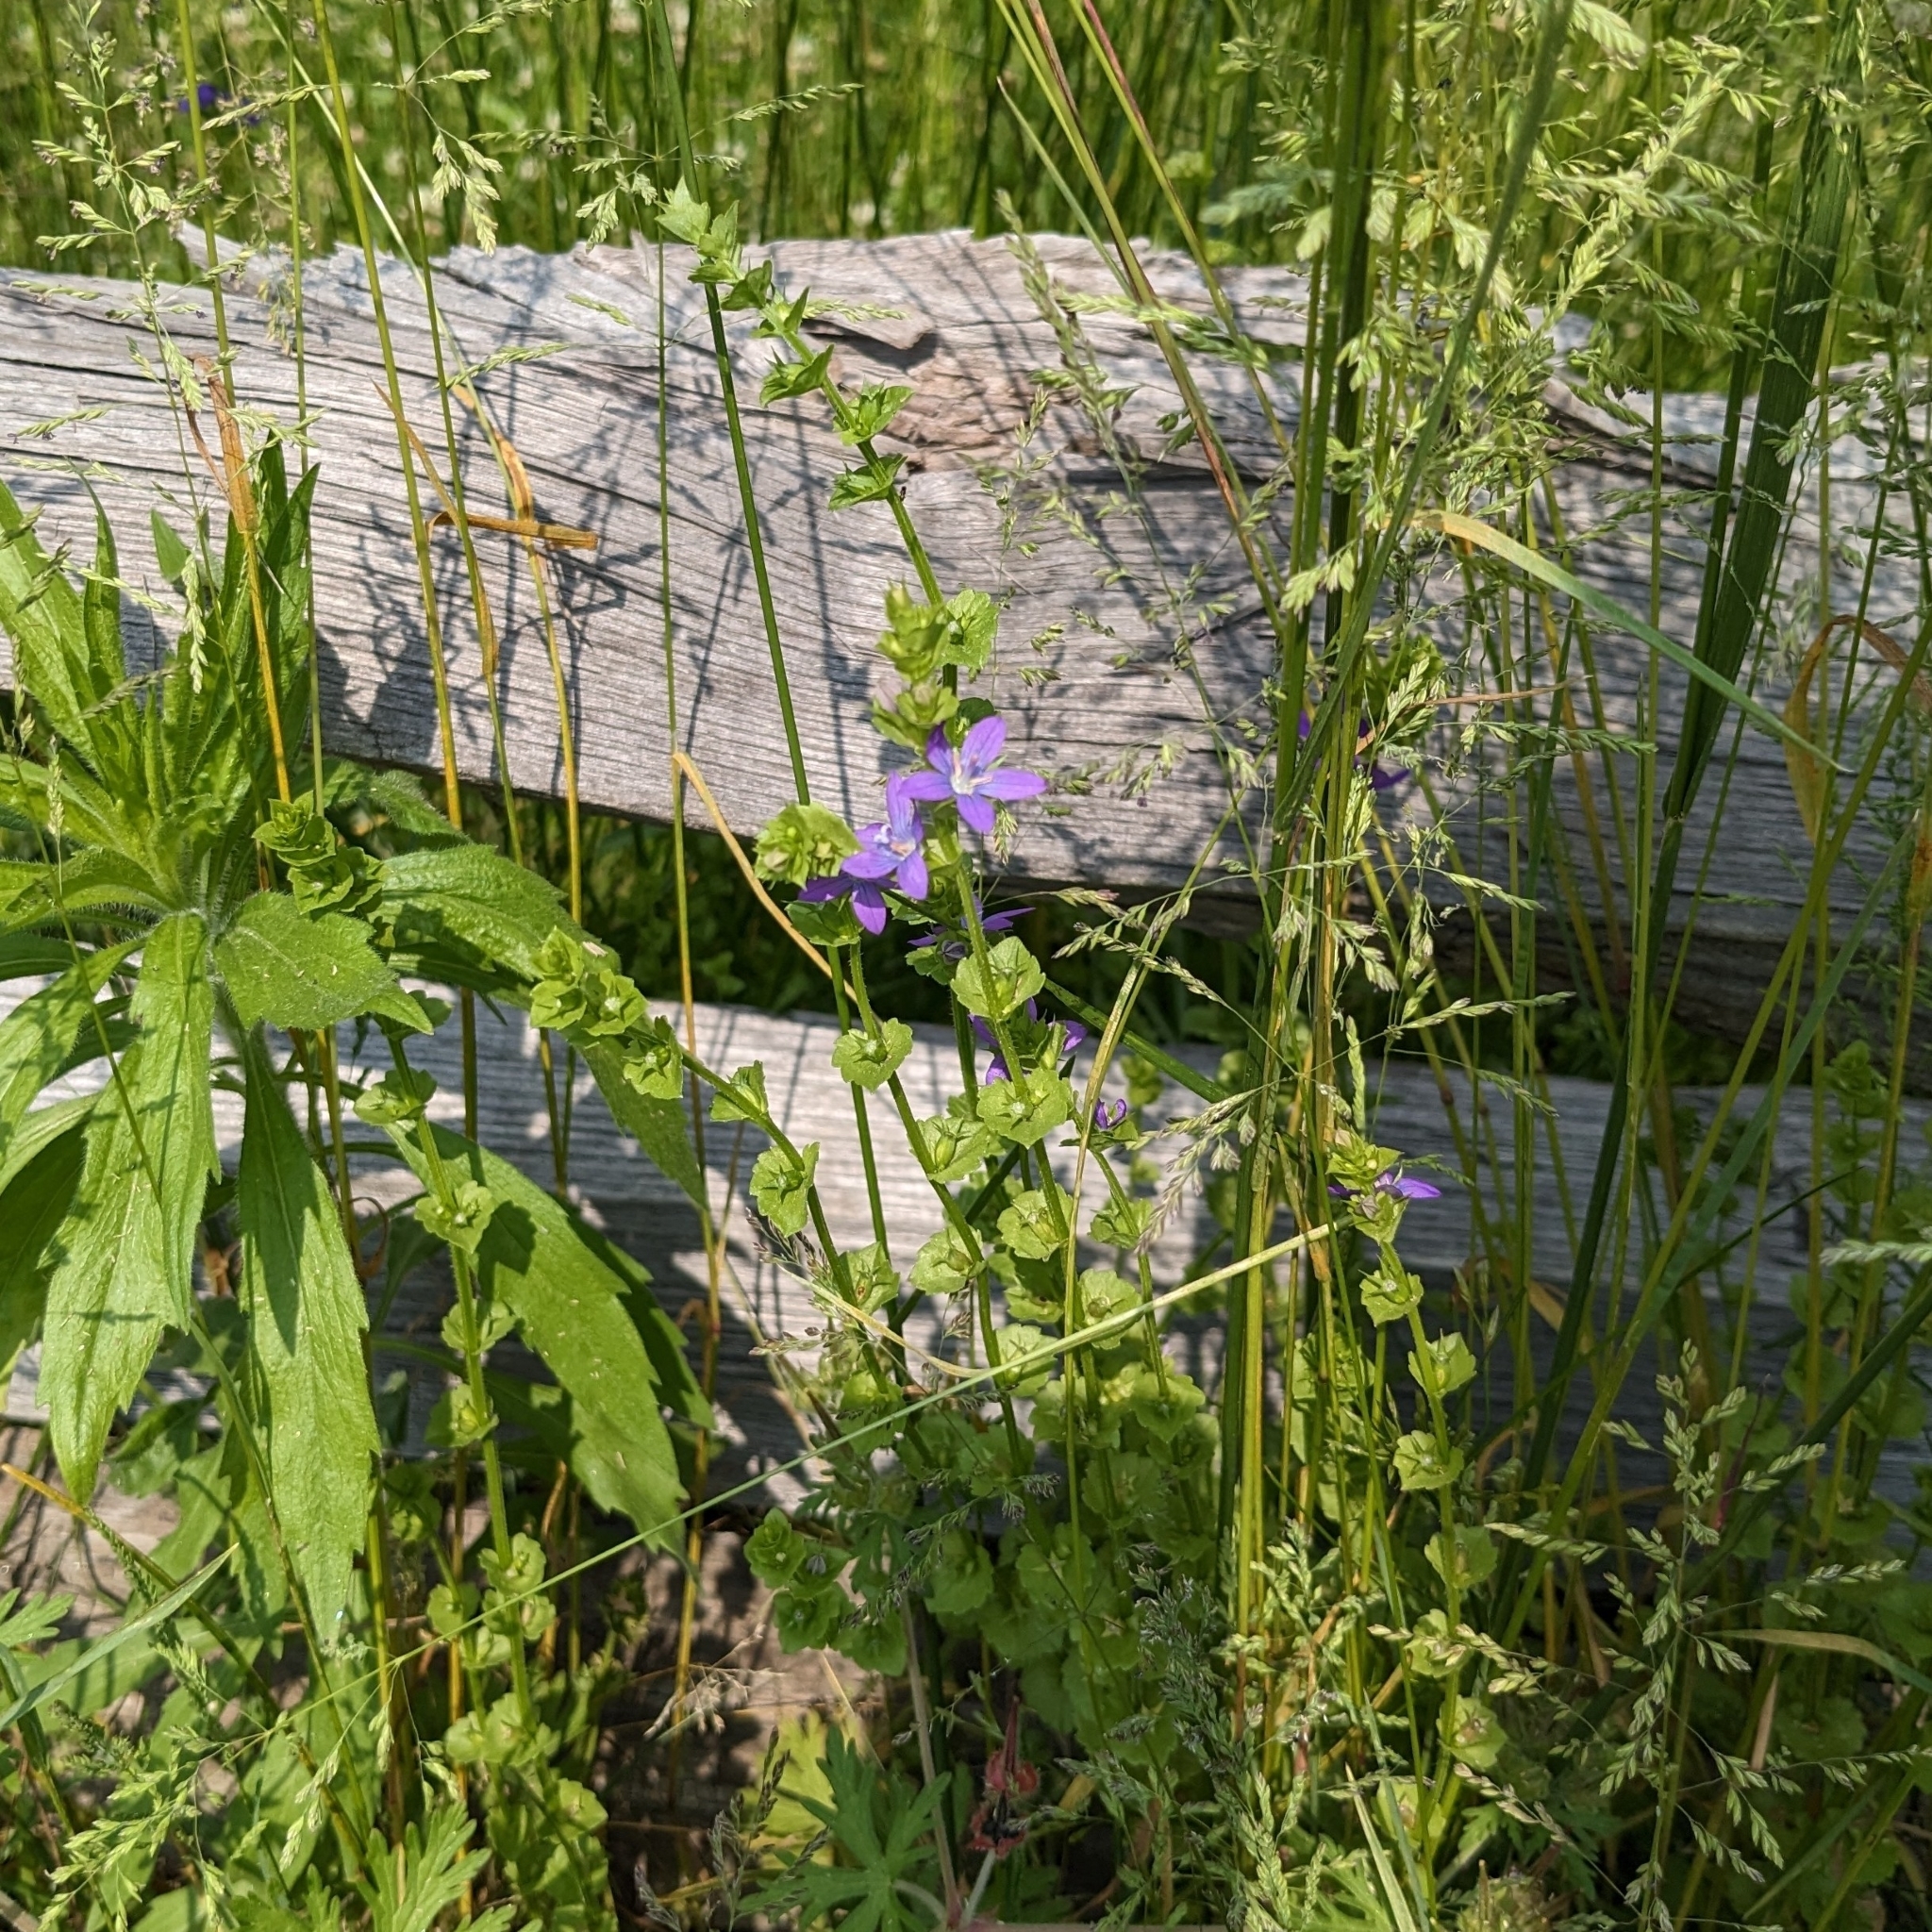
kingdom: Plantae
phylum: Tracheophyta
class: Magnoliopsida
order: Asterales
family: Campanulaceae
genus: Triodanis
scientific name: Triodanis perfoliata
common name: Clasping venus' looking-glass
